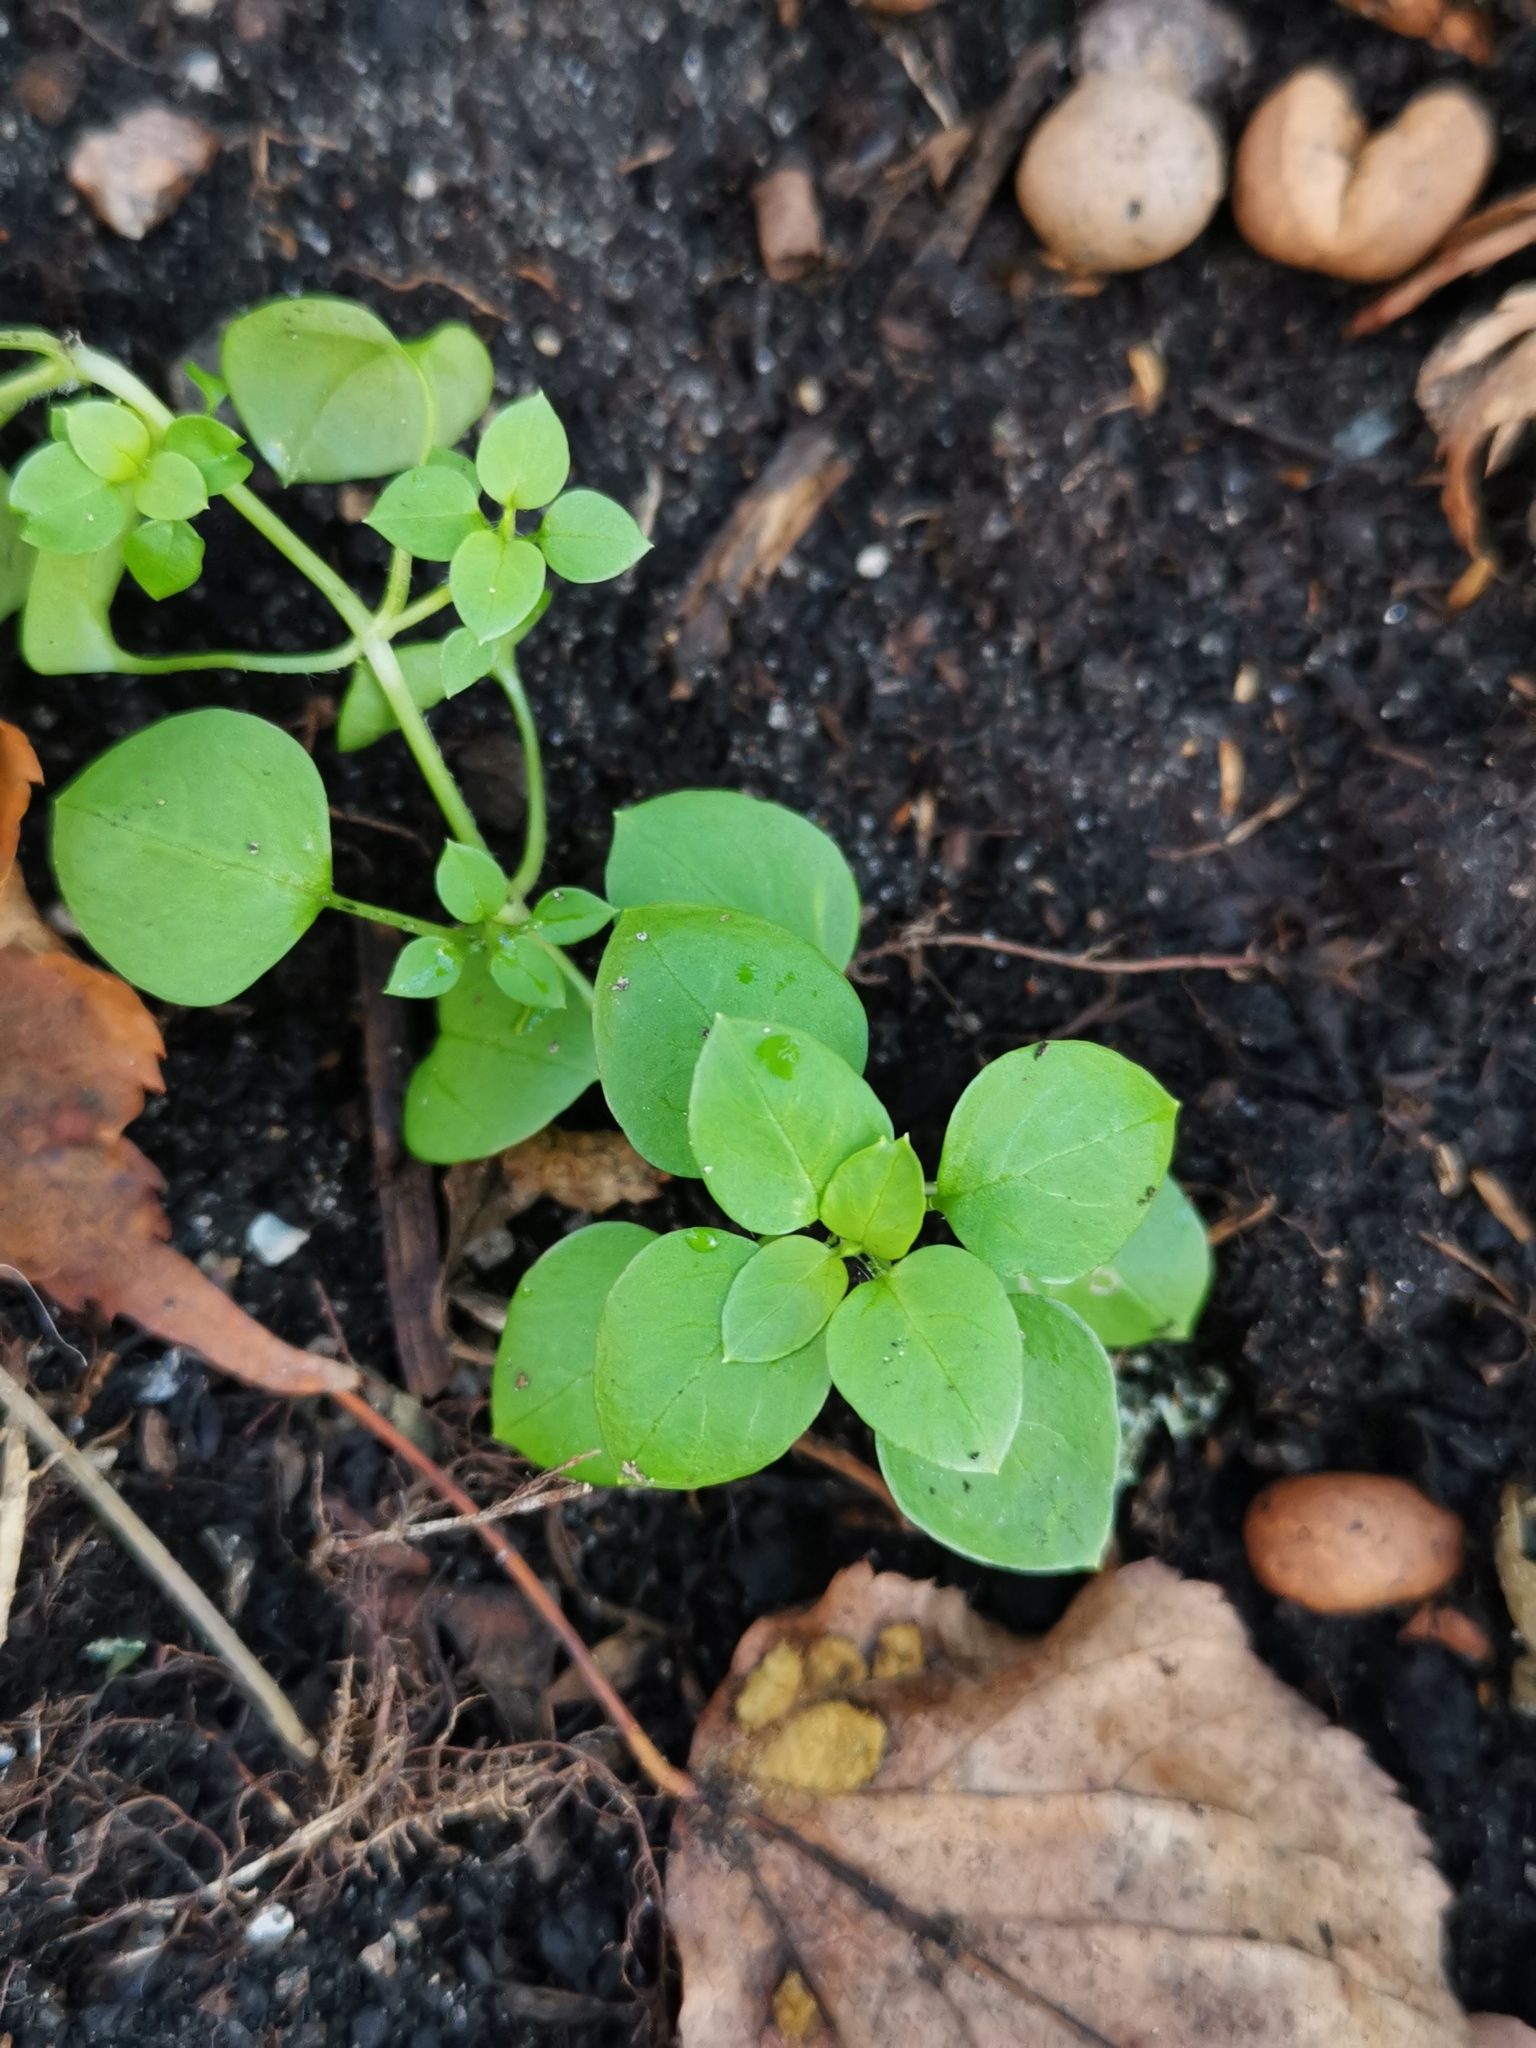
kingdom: Plantae
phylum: Tracheophyta
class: Magnoliopsida
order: Caryophyllales
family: Caryophyllaceae
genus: Stellaria
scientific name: Stellaria media
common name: Common chickweed
